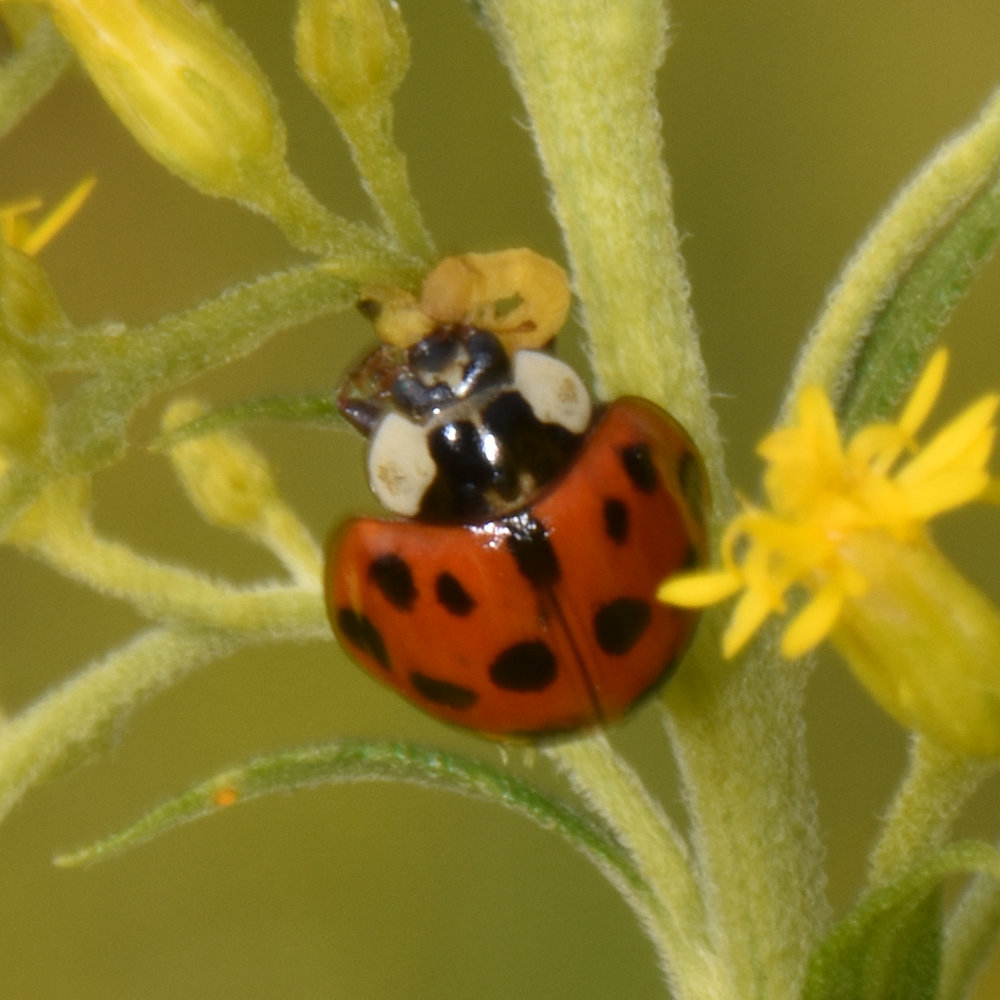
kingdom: Animalia
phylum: Arthropoda
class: Insecta
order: Coleoptera
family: Coccinellidae
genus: Harmonia
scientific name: Harmonia axyridis
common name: Harlequin ladybird
